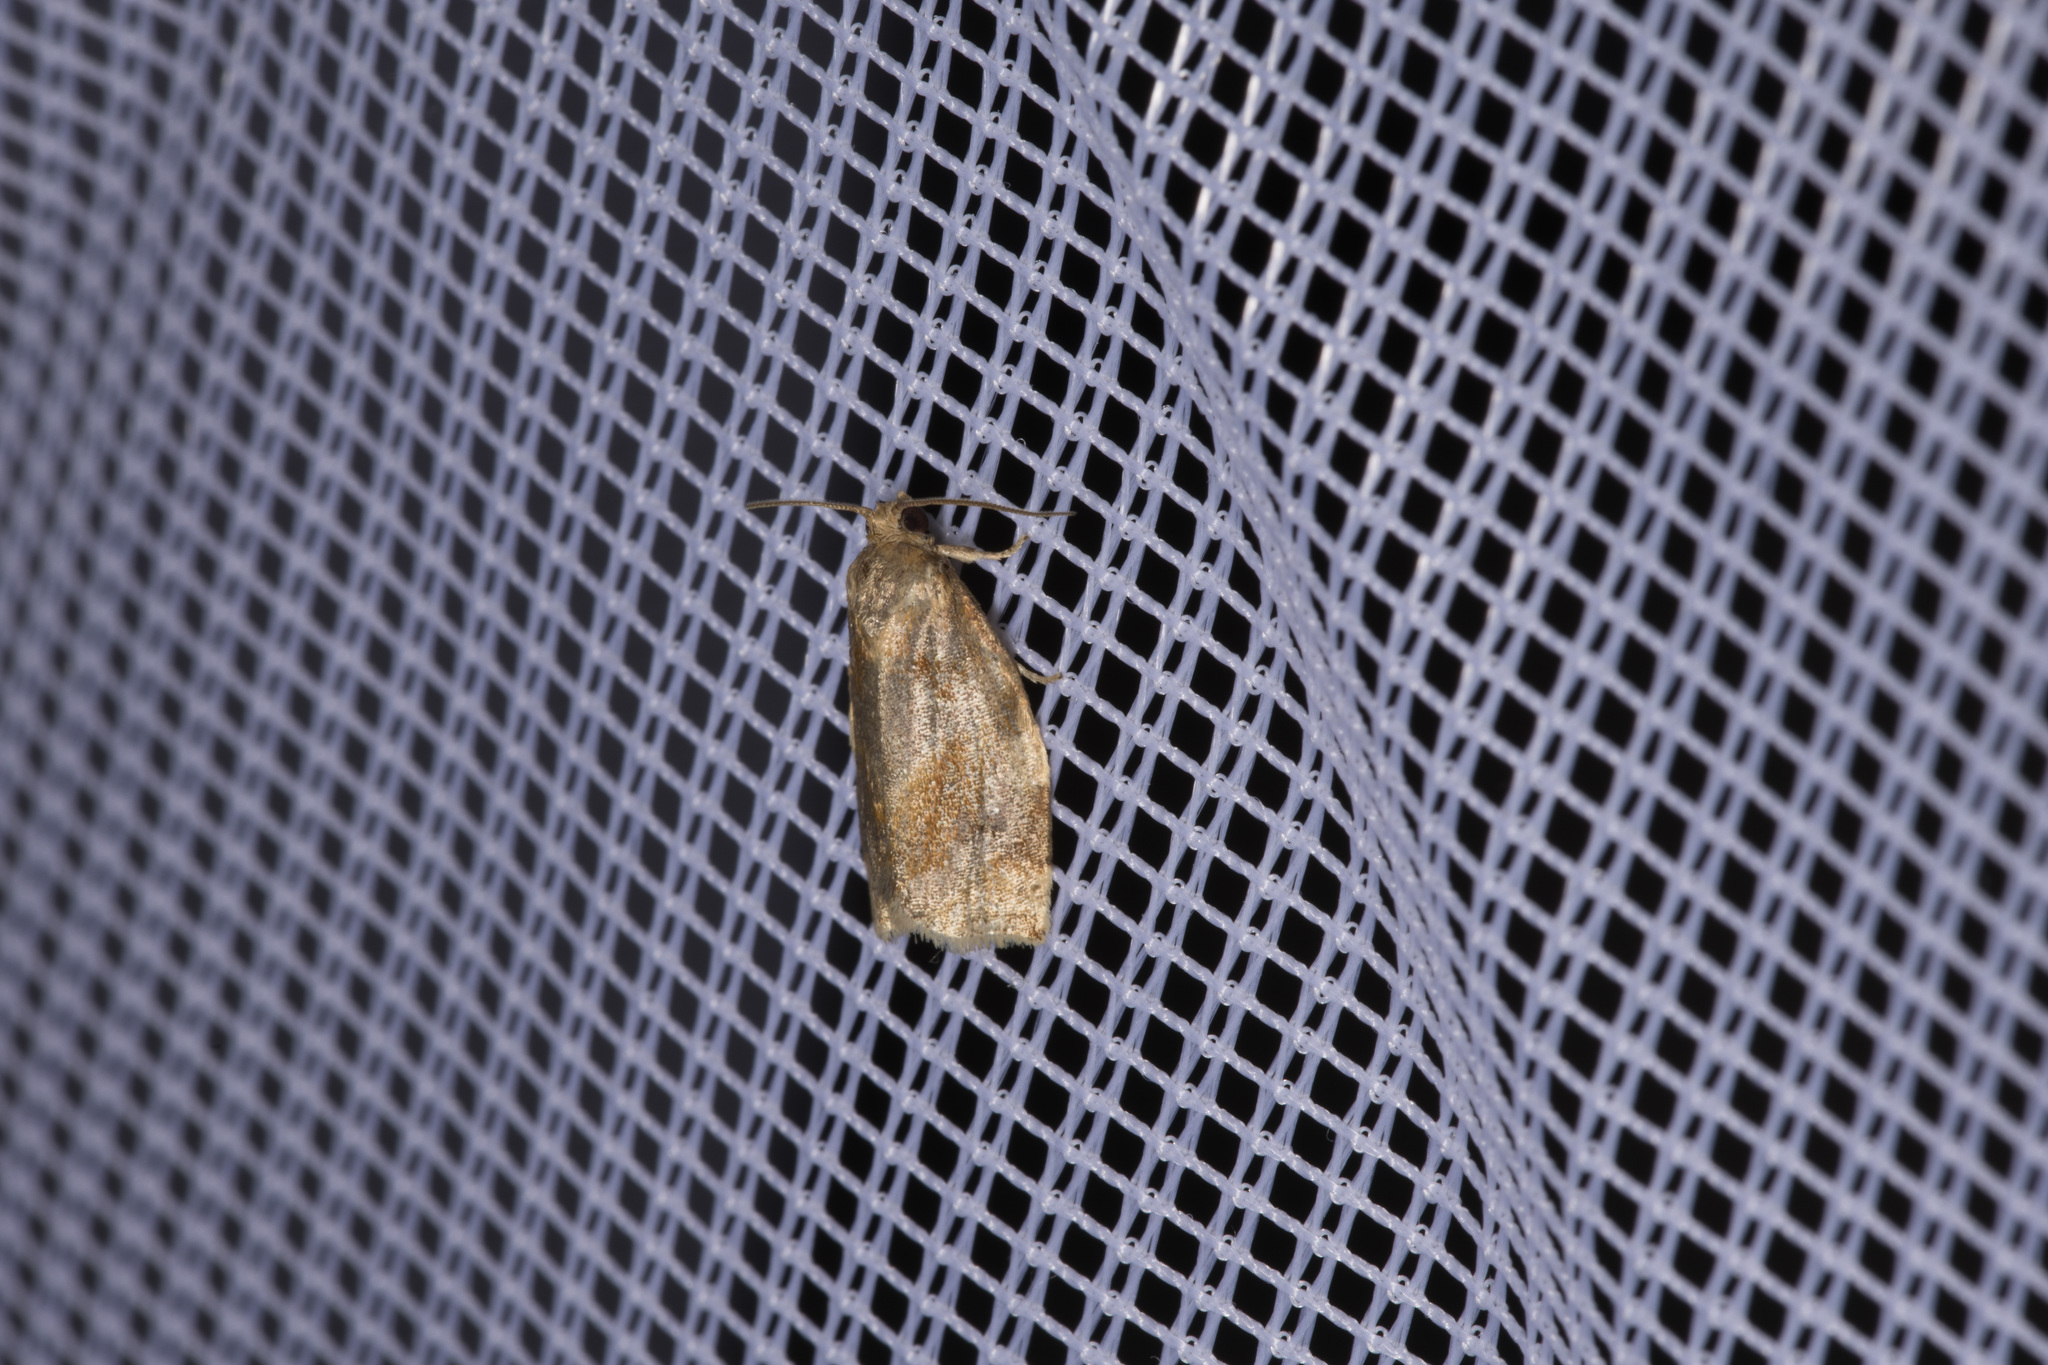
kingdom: Animalia
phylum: Arthropoda
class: Insecta
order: Lepidoptera
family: Tortricidae
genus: Archips
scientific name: Archips xylosteana
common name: Variegated golden tortrix
